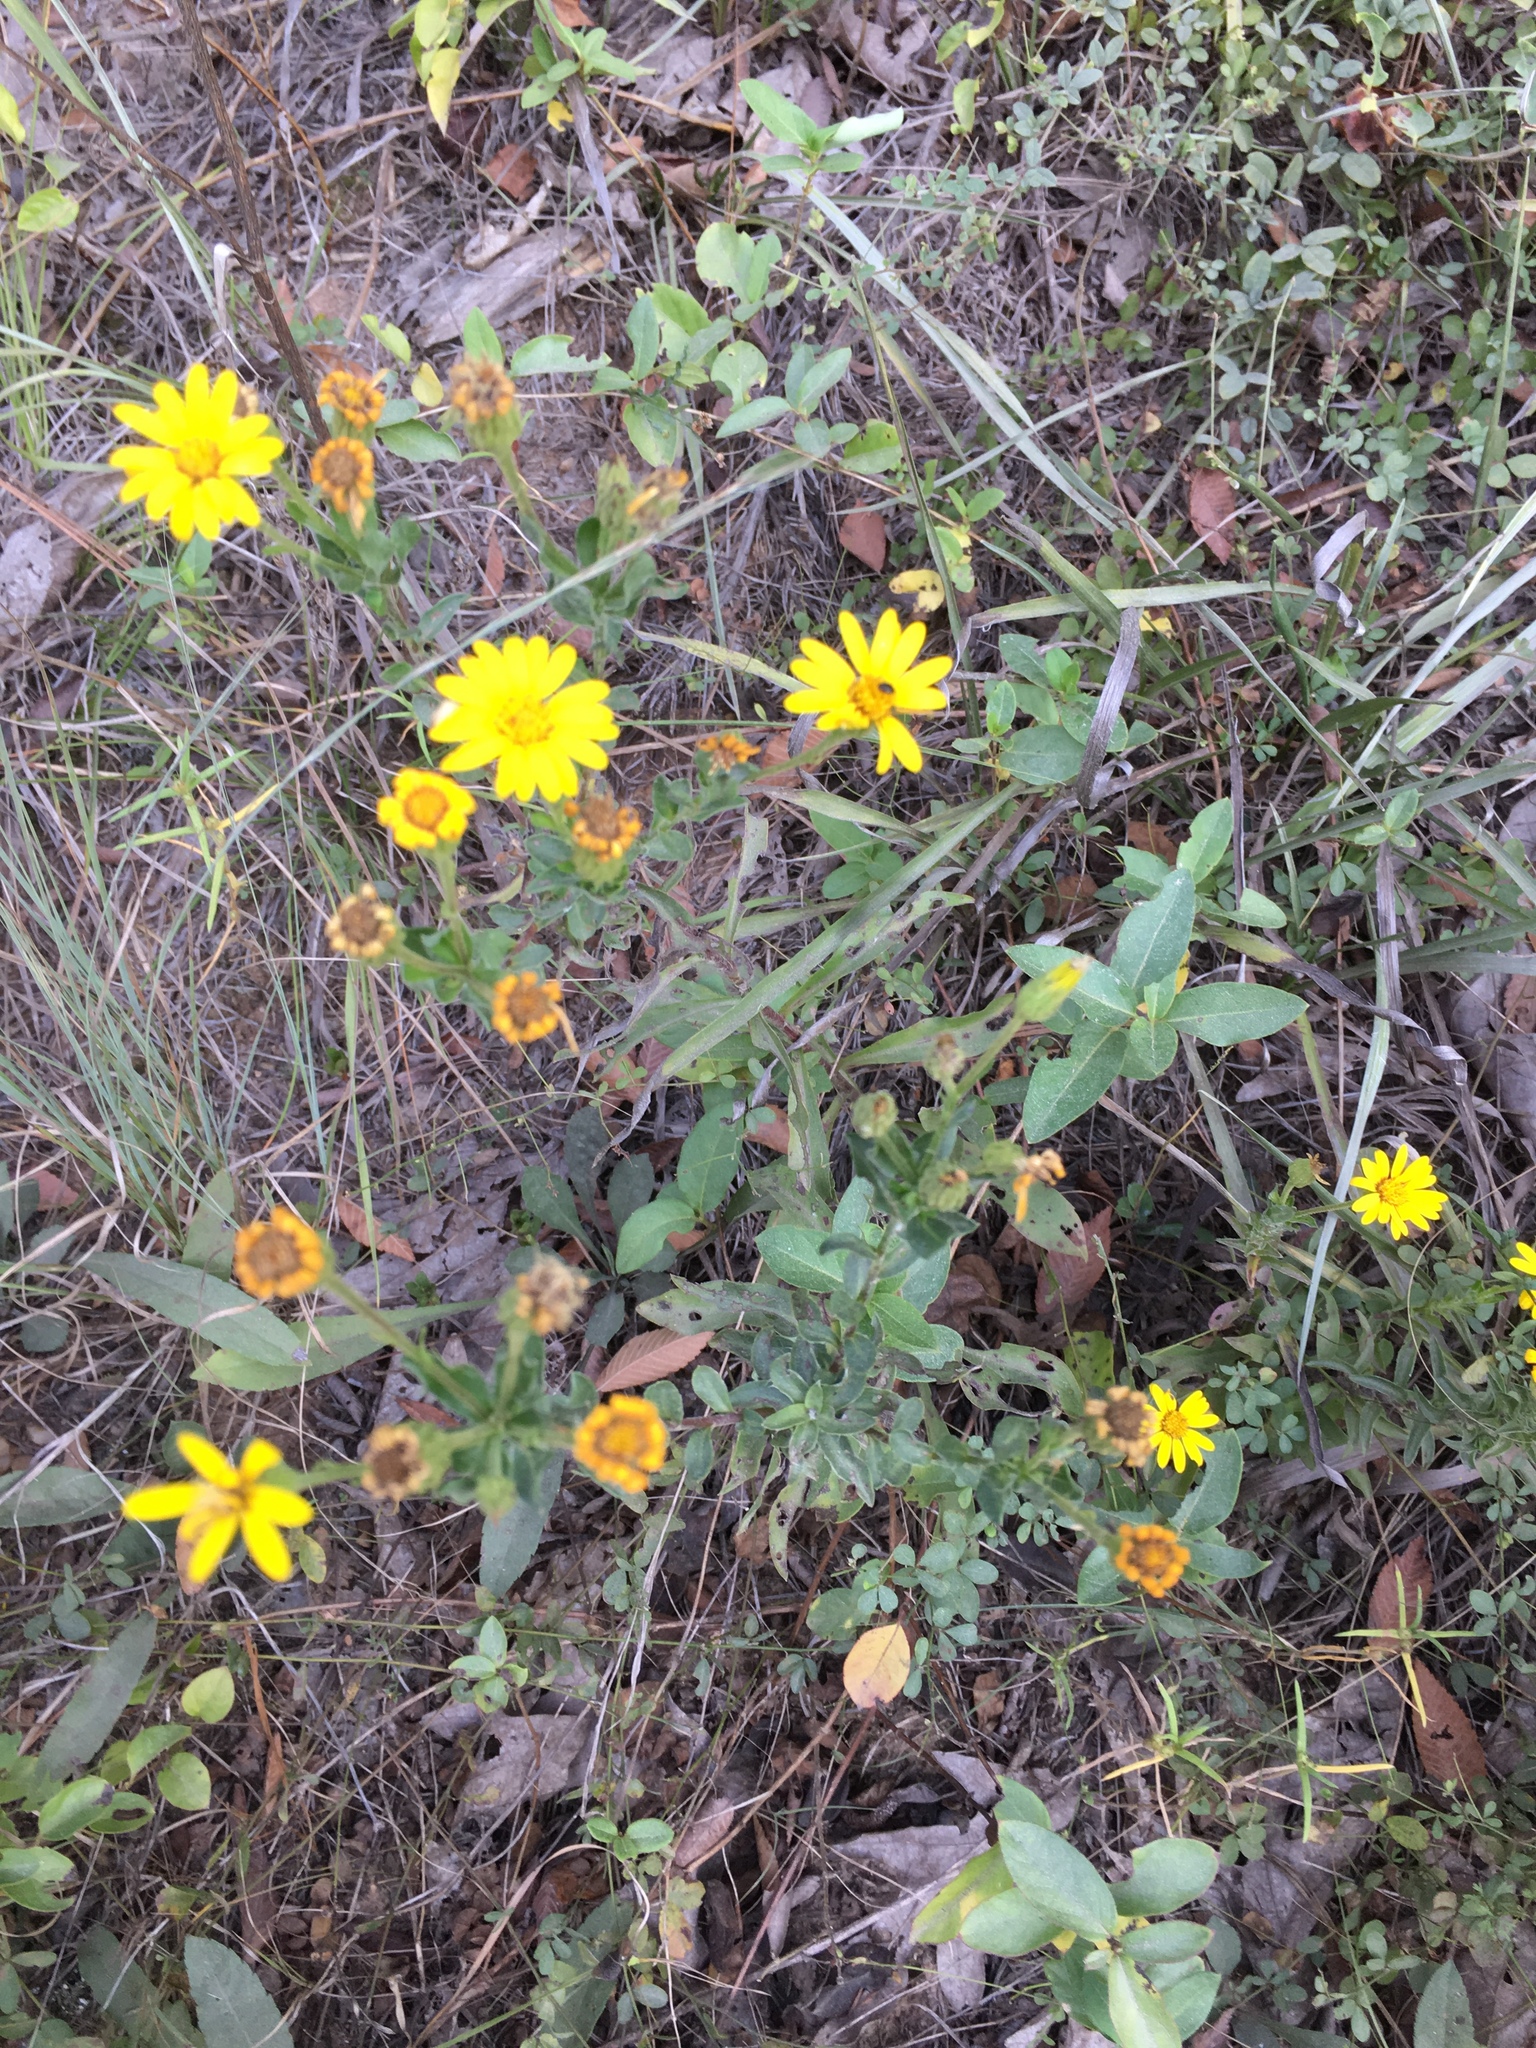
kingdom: Plantae
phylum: Tracheophyta
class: Magnoliopsida
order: Asterales
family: Asteraceae
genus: Chrysopsis
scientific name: Chrysopsis mariana
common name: Maryland golden-aster
